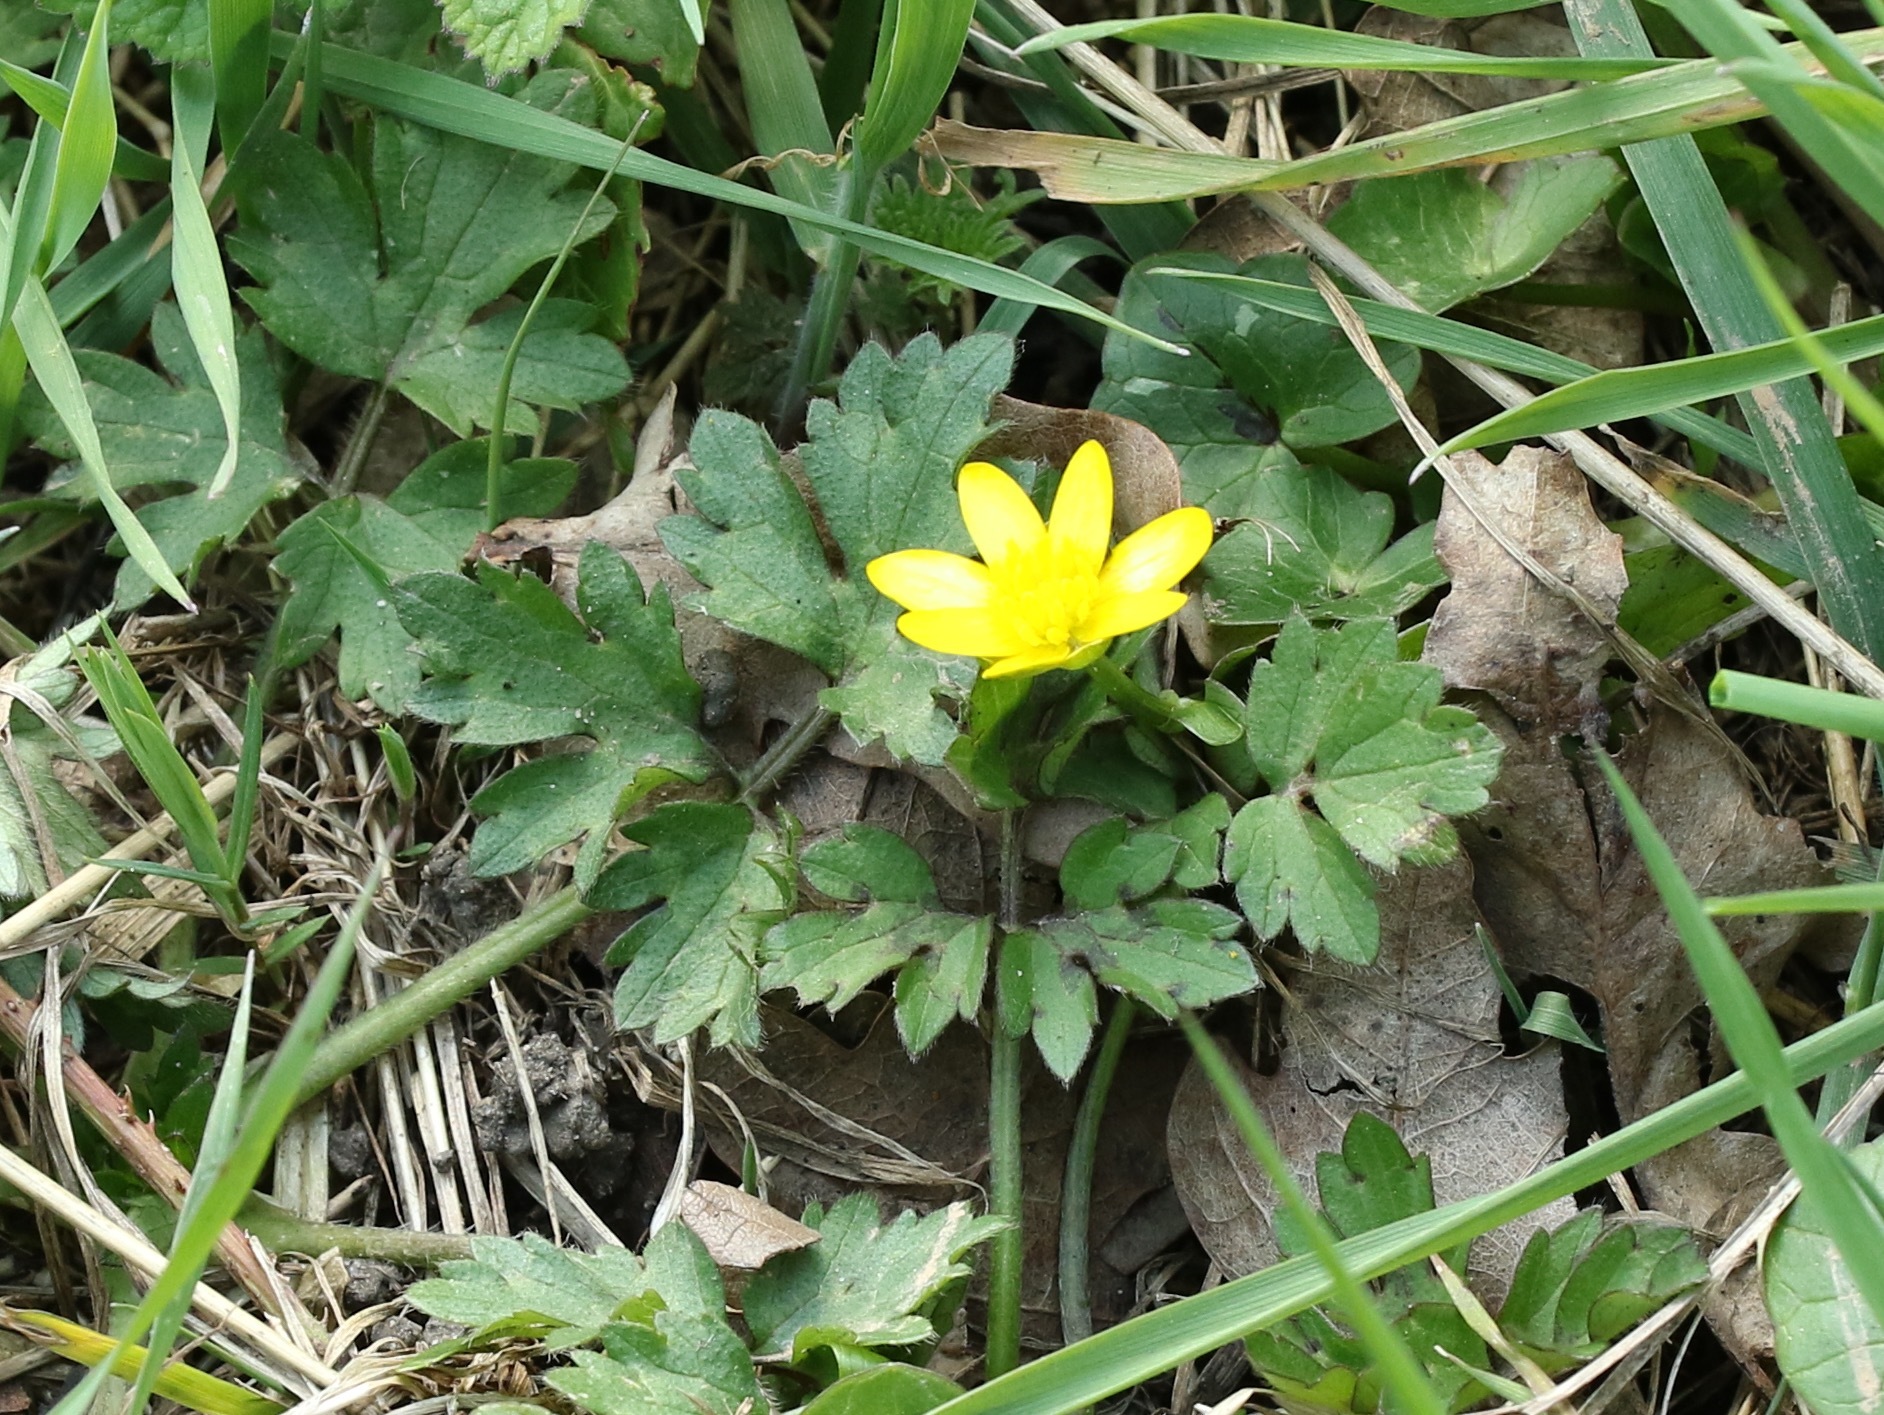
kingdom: Plantae
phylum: Tracheophyta
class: Magnoliopsida
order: Ranunculales
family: Ranunculaceae
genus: Ficaria
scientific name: Ficaria verna
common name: Lesser celandine
